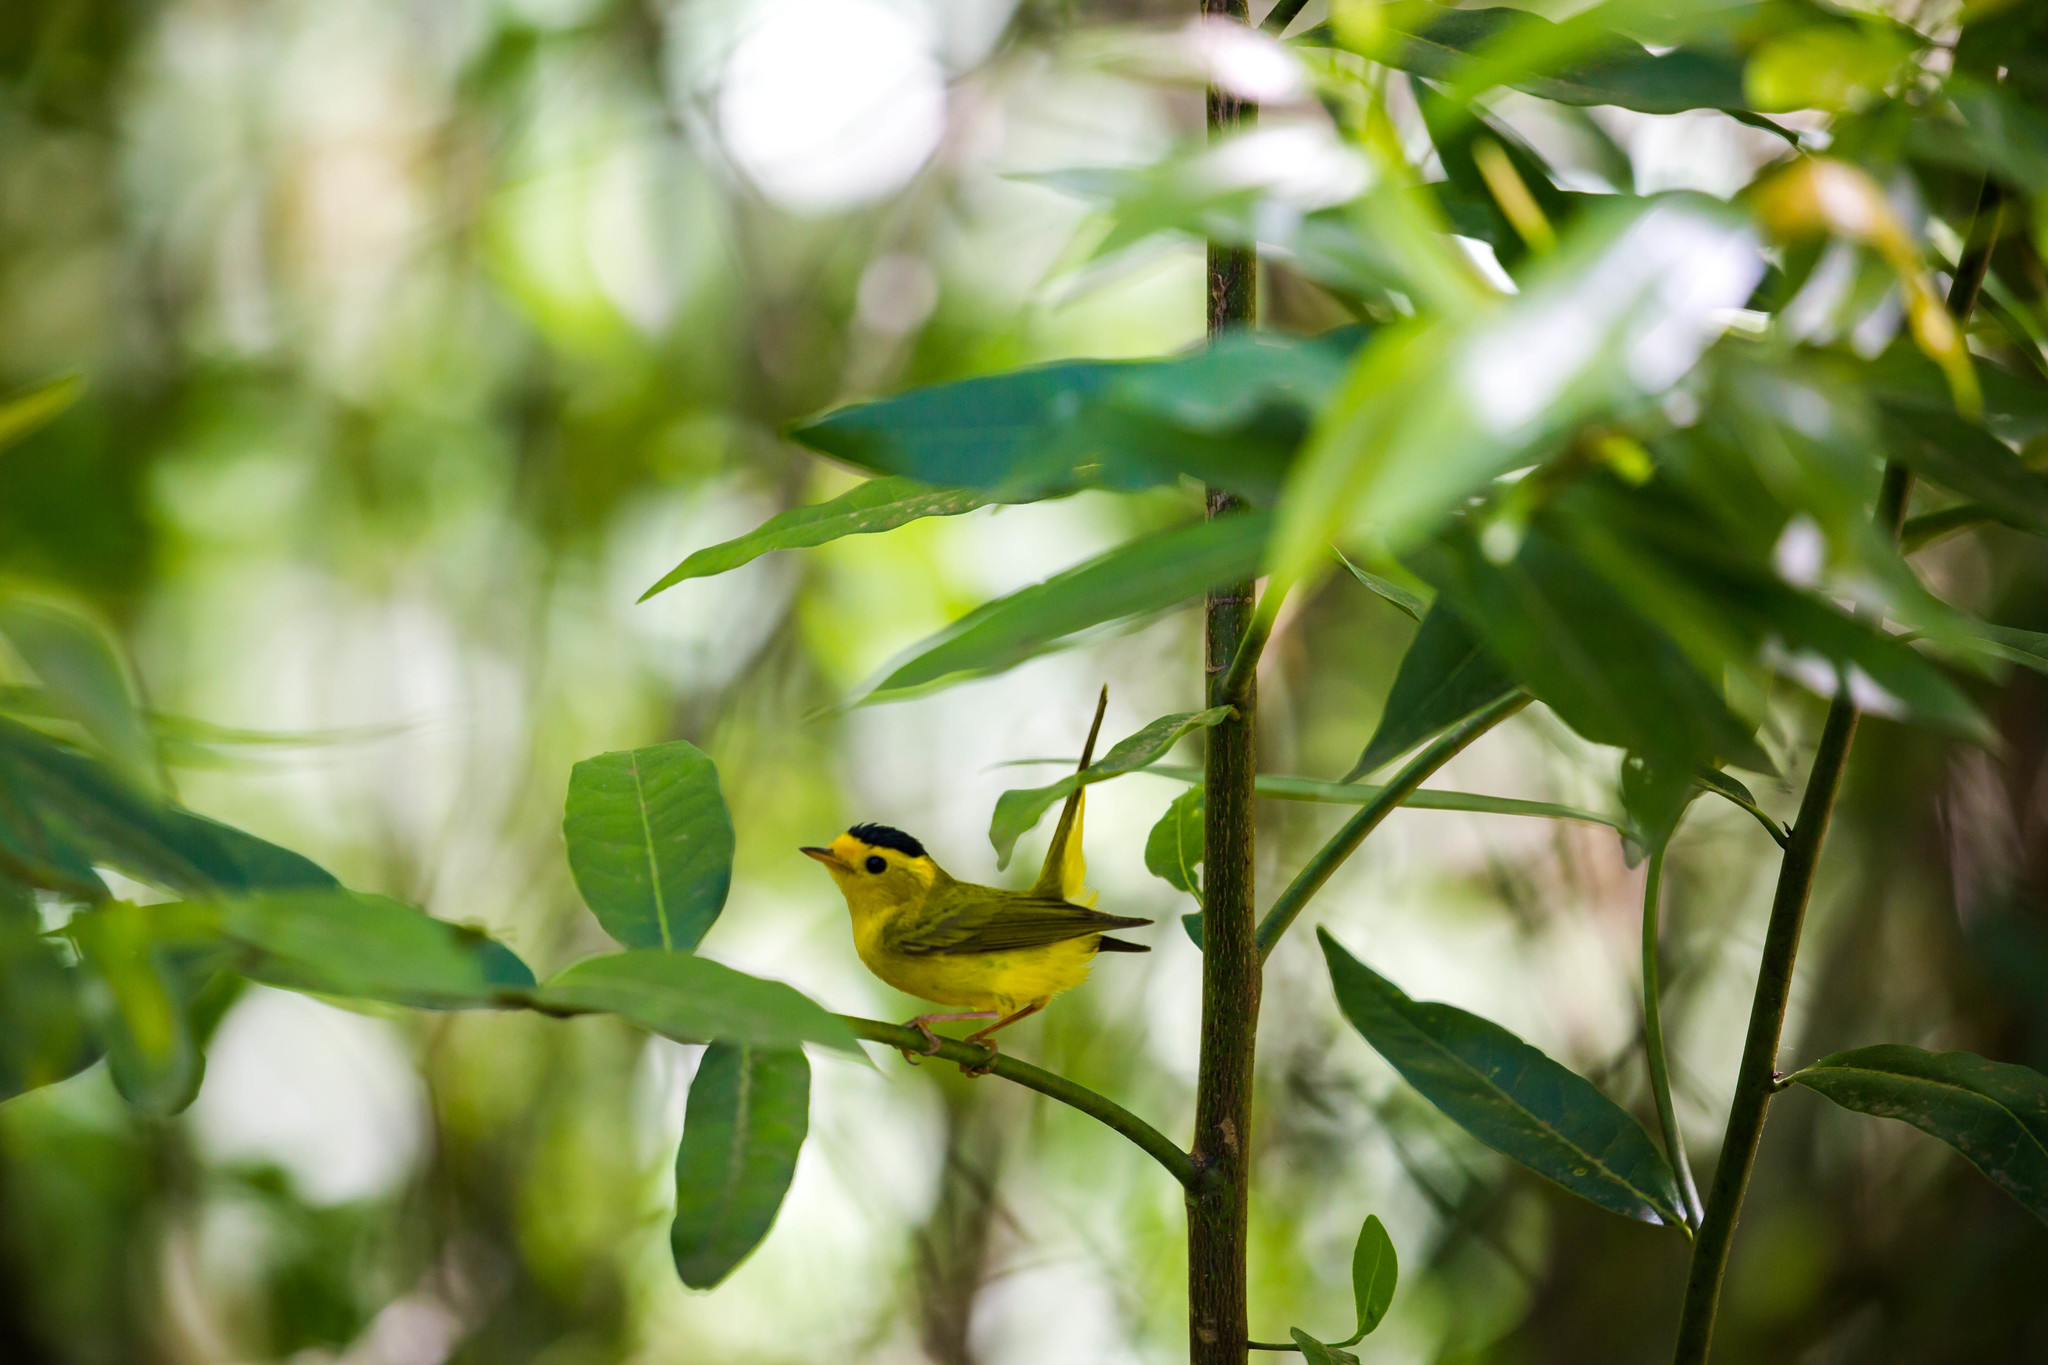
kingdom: Animalia
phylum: Chordata
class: Aves
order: Passeriformes
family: Parulidae
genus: Cardellina
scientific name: Cardellina pusilla
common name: Wilson's warbler
